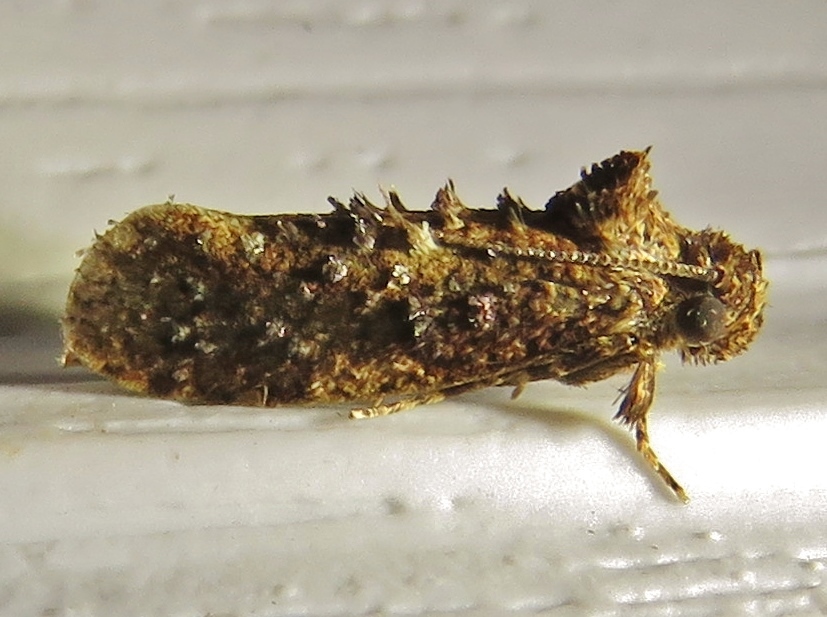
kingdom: Animalia
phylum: Arthropoda
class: Insecta
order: Lepidoptera
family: Tineidae
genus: Acrolophus
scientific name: Acrolophus cressoni
